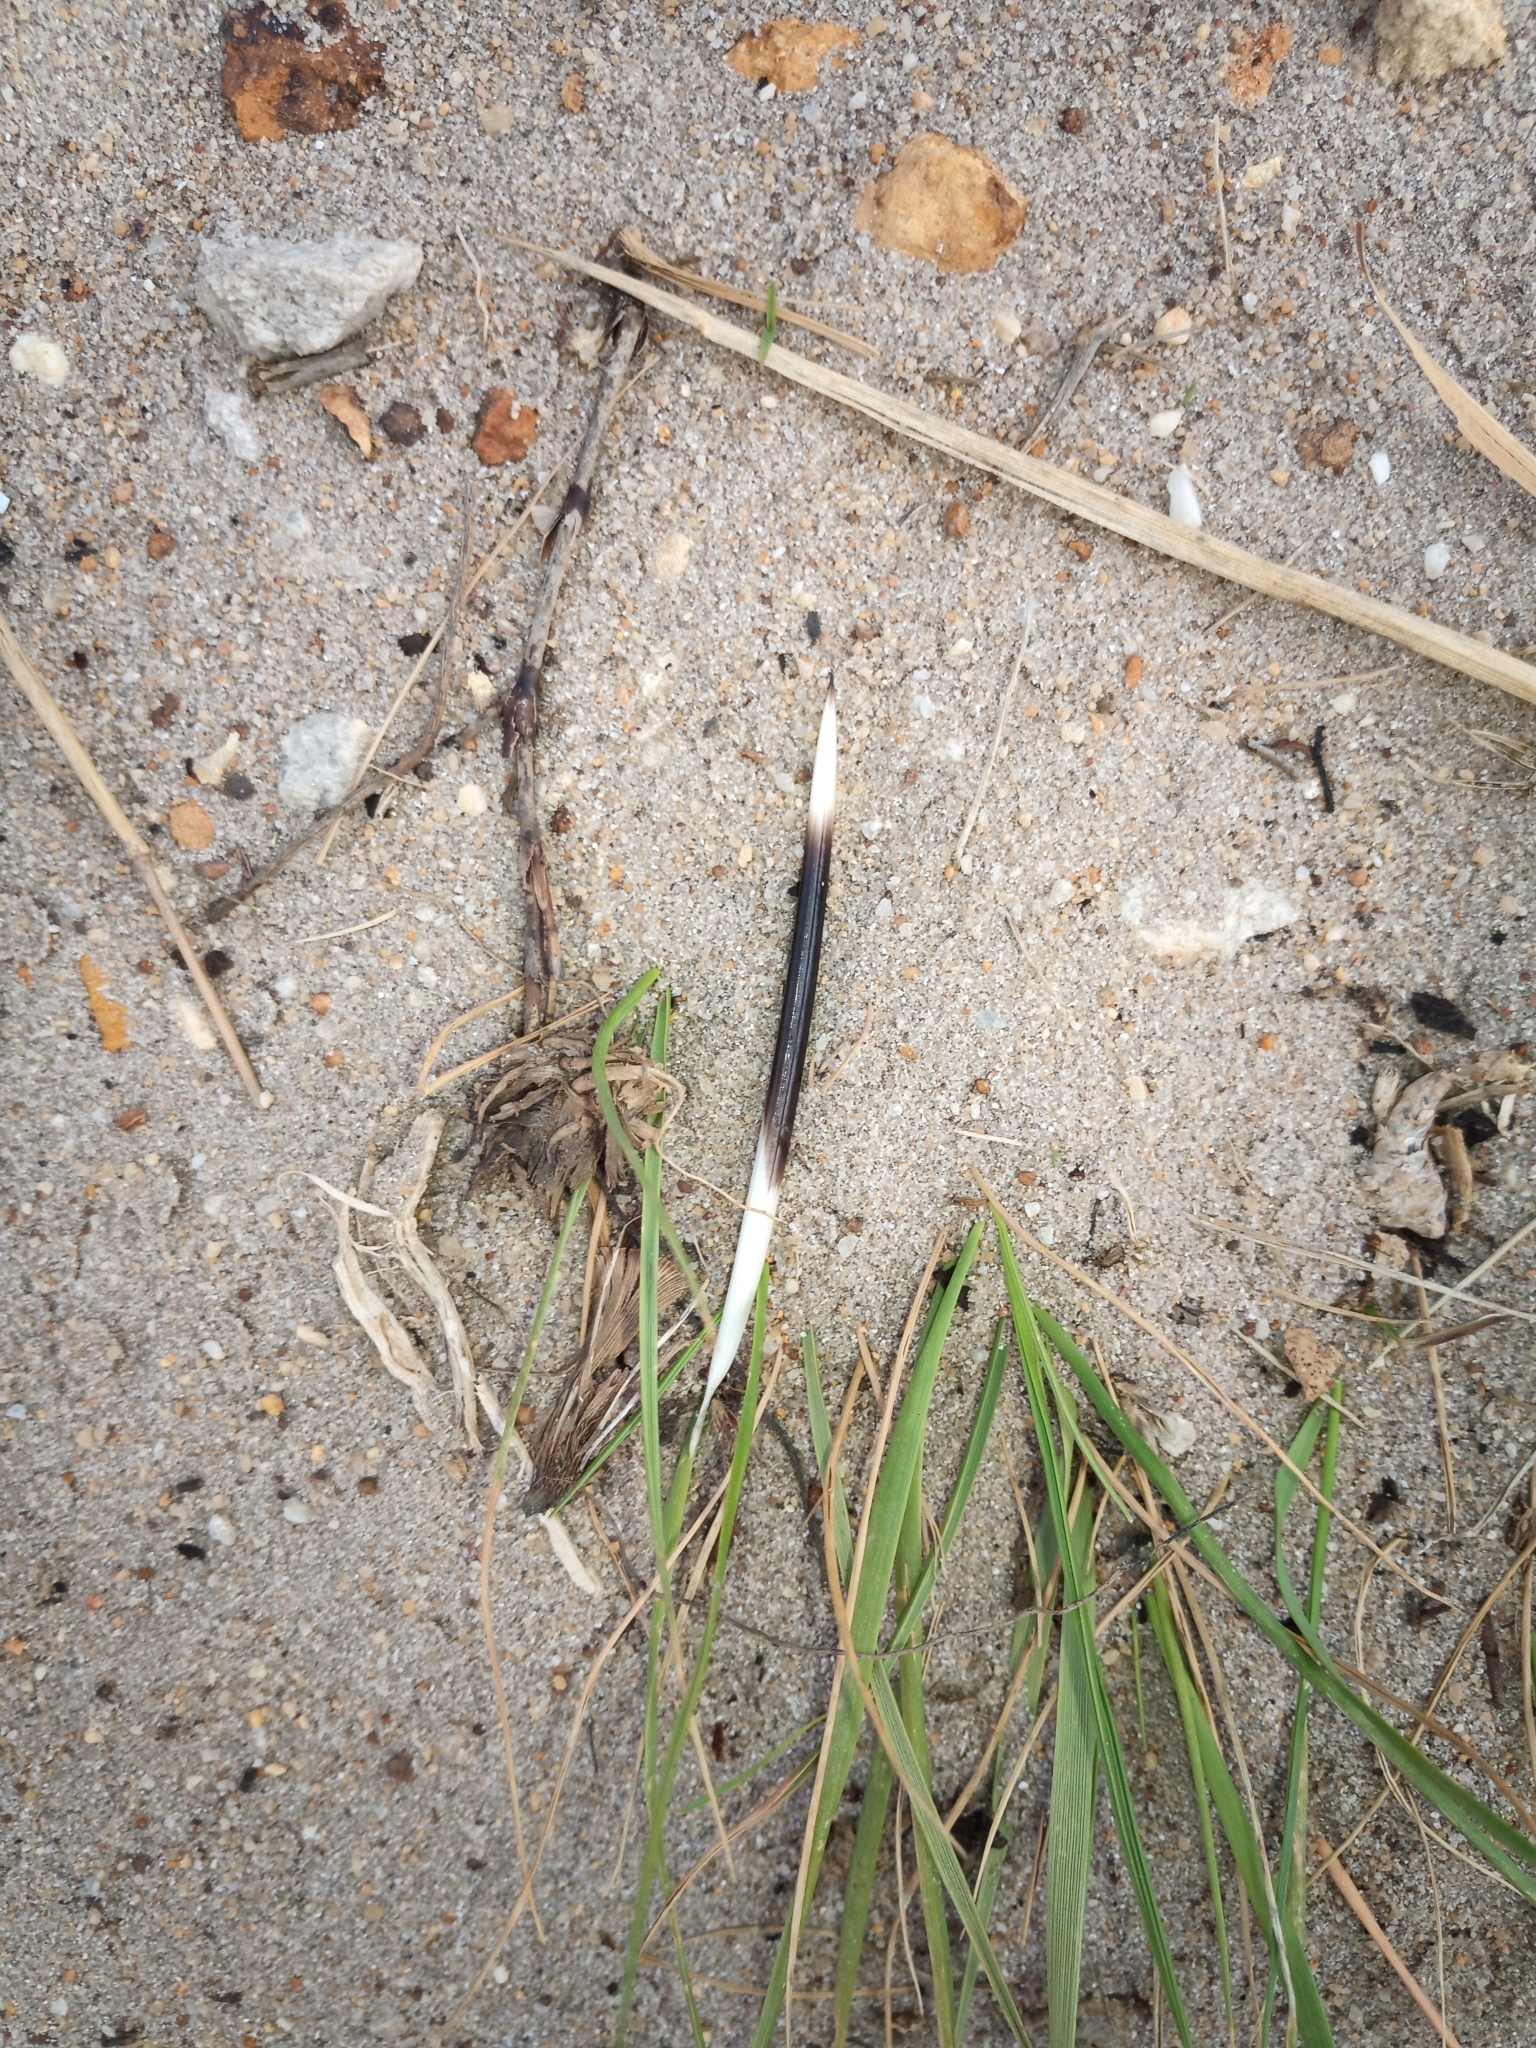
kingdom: Animalia
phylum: Chordata
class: Mammalia
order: Rodentia
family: Hystricidae
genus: Hystrix
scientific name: Hystrix africaeaustralis
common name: Cape porcupine
